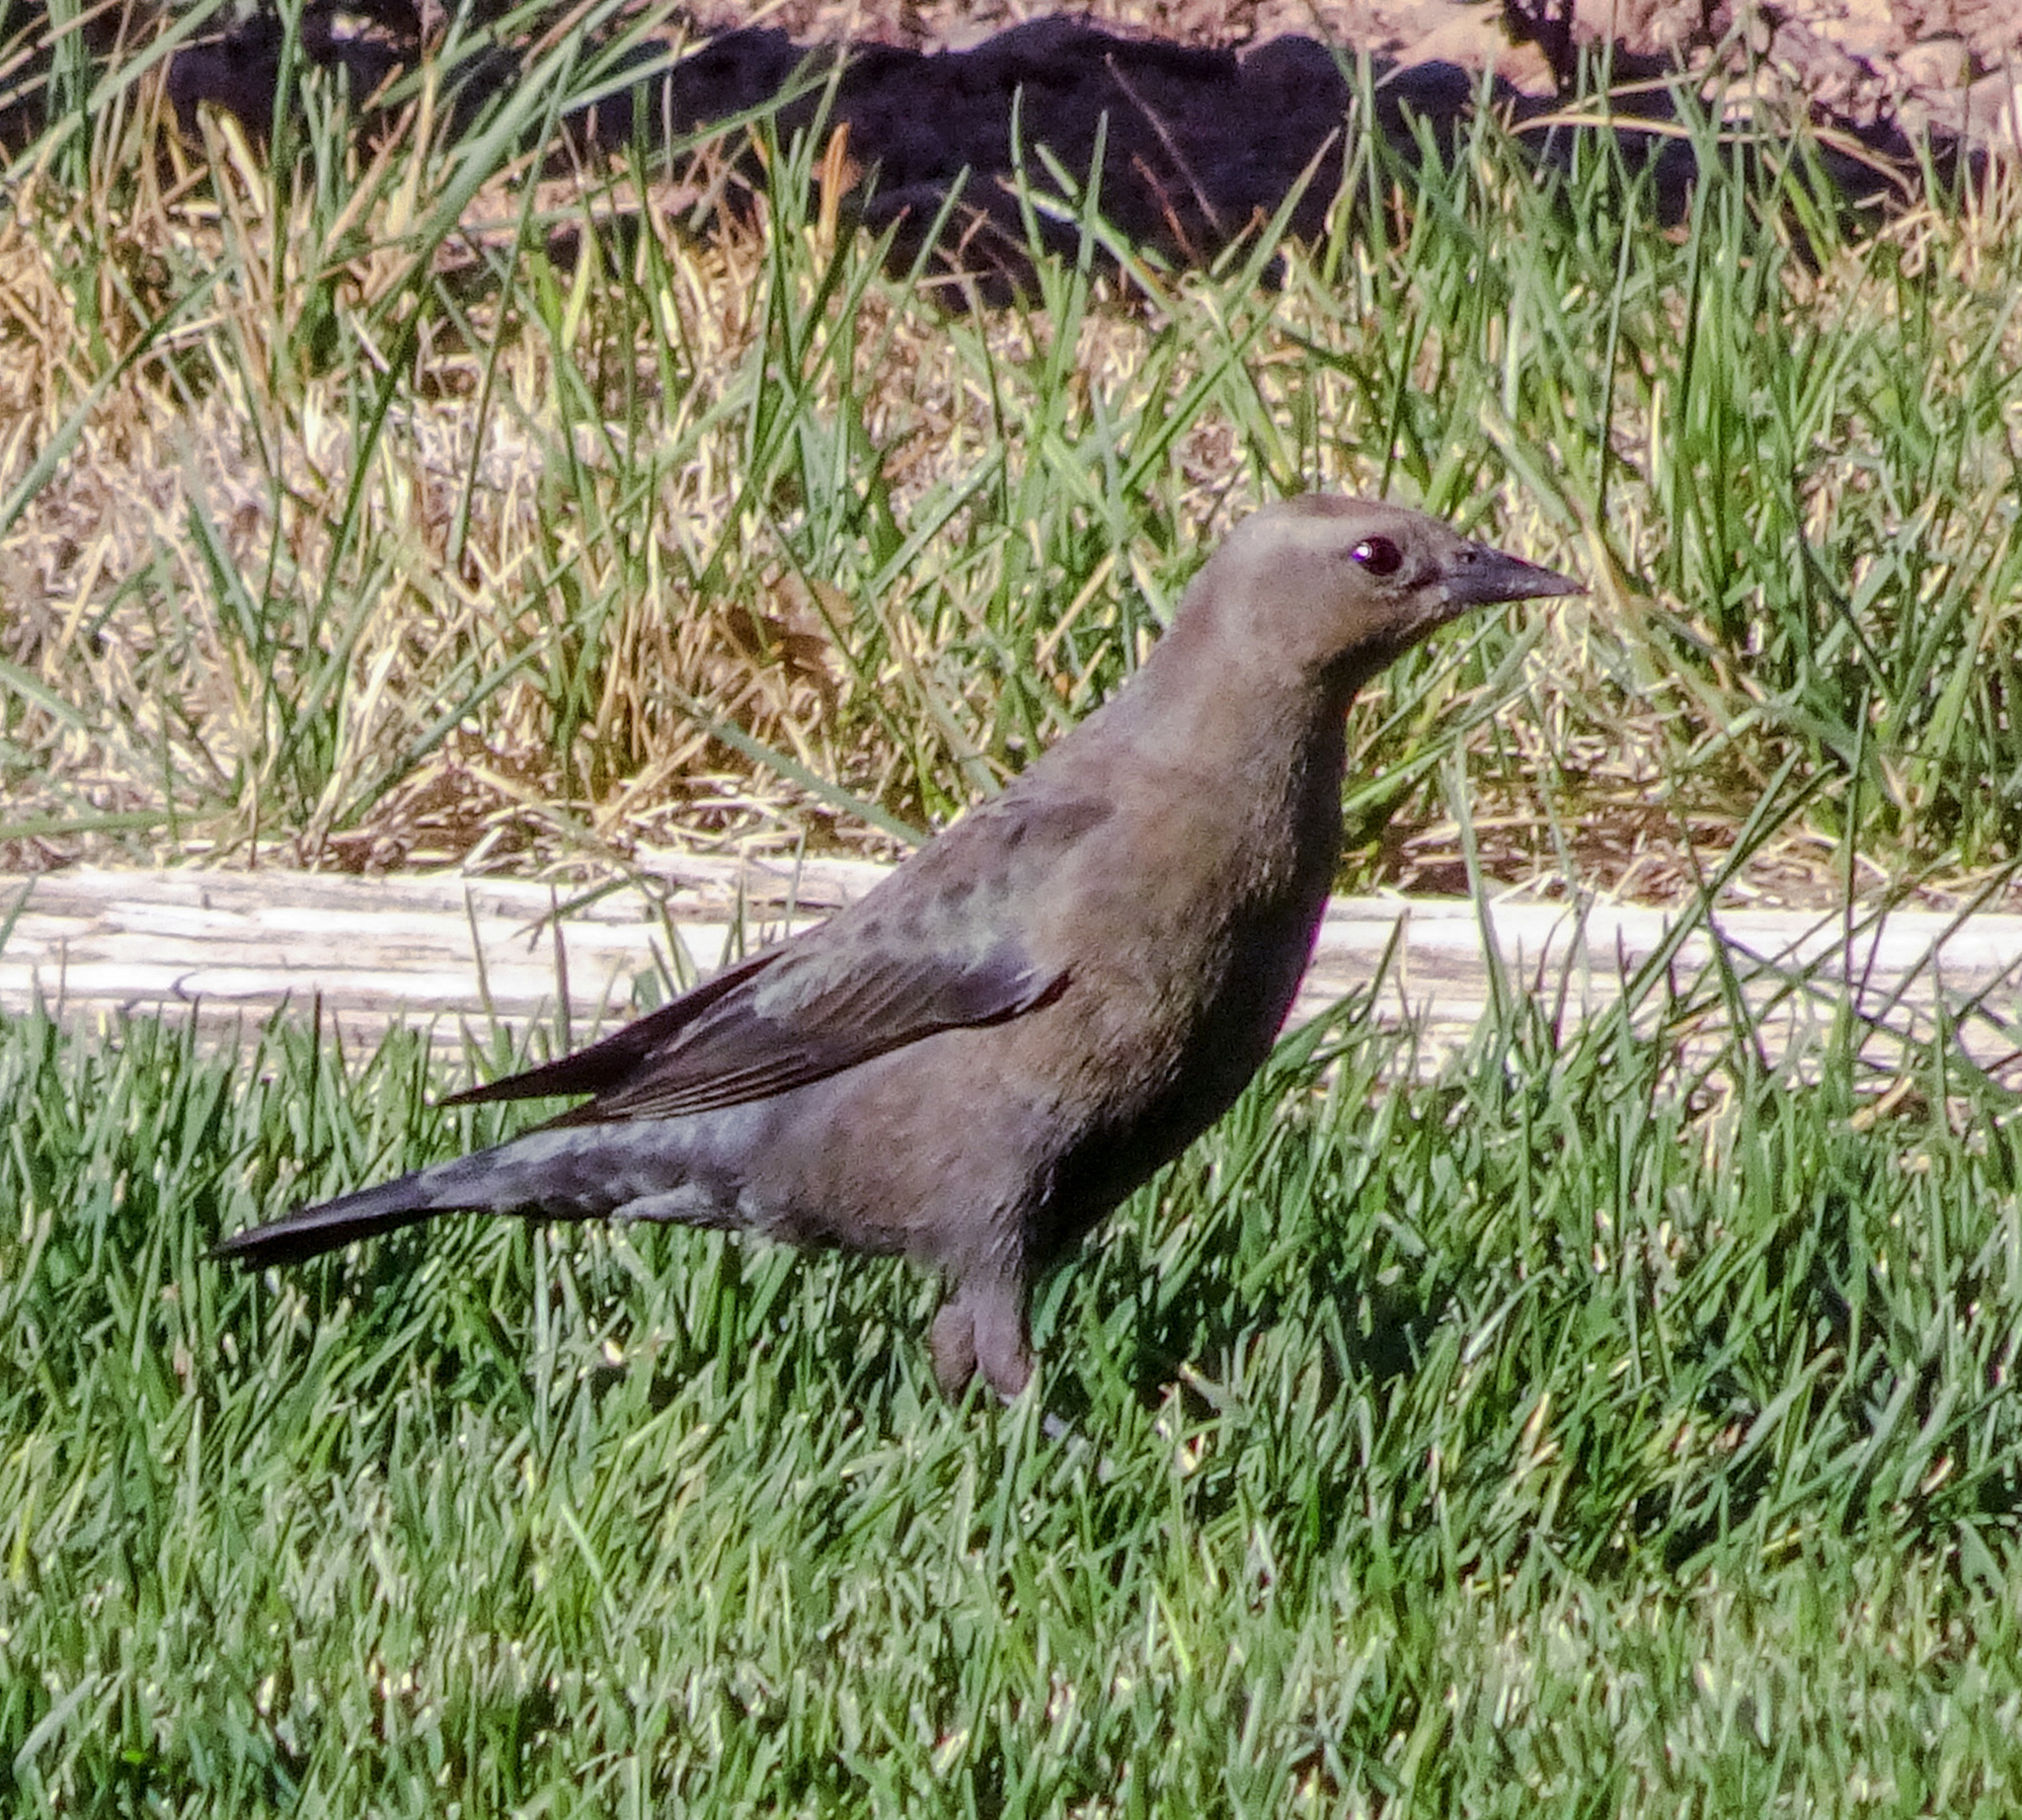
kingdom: Animalia
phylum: Chordata
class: Aves
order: Passeriformes
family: Icteridae
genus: Euphagus
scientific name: Euphagus cyanocephalus
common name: Brewer's blackbird
